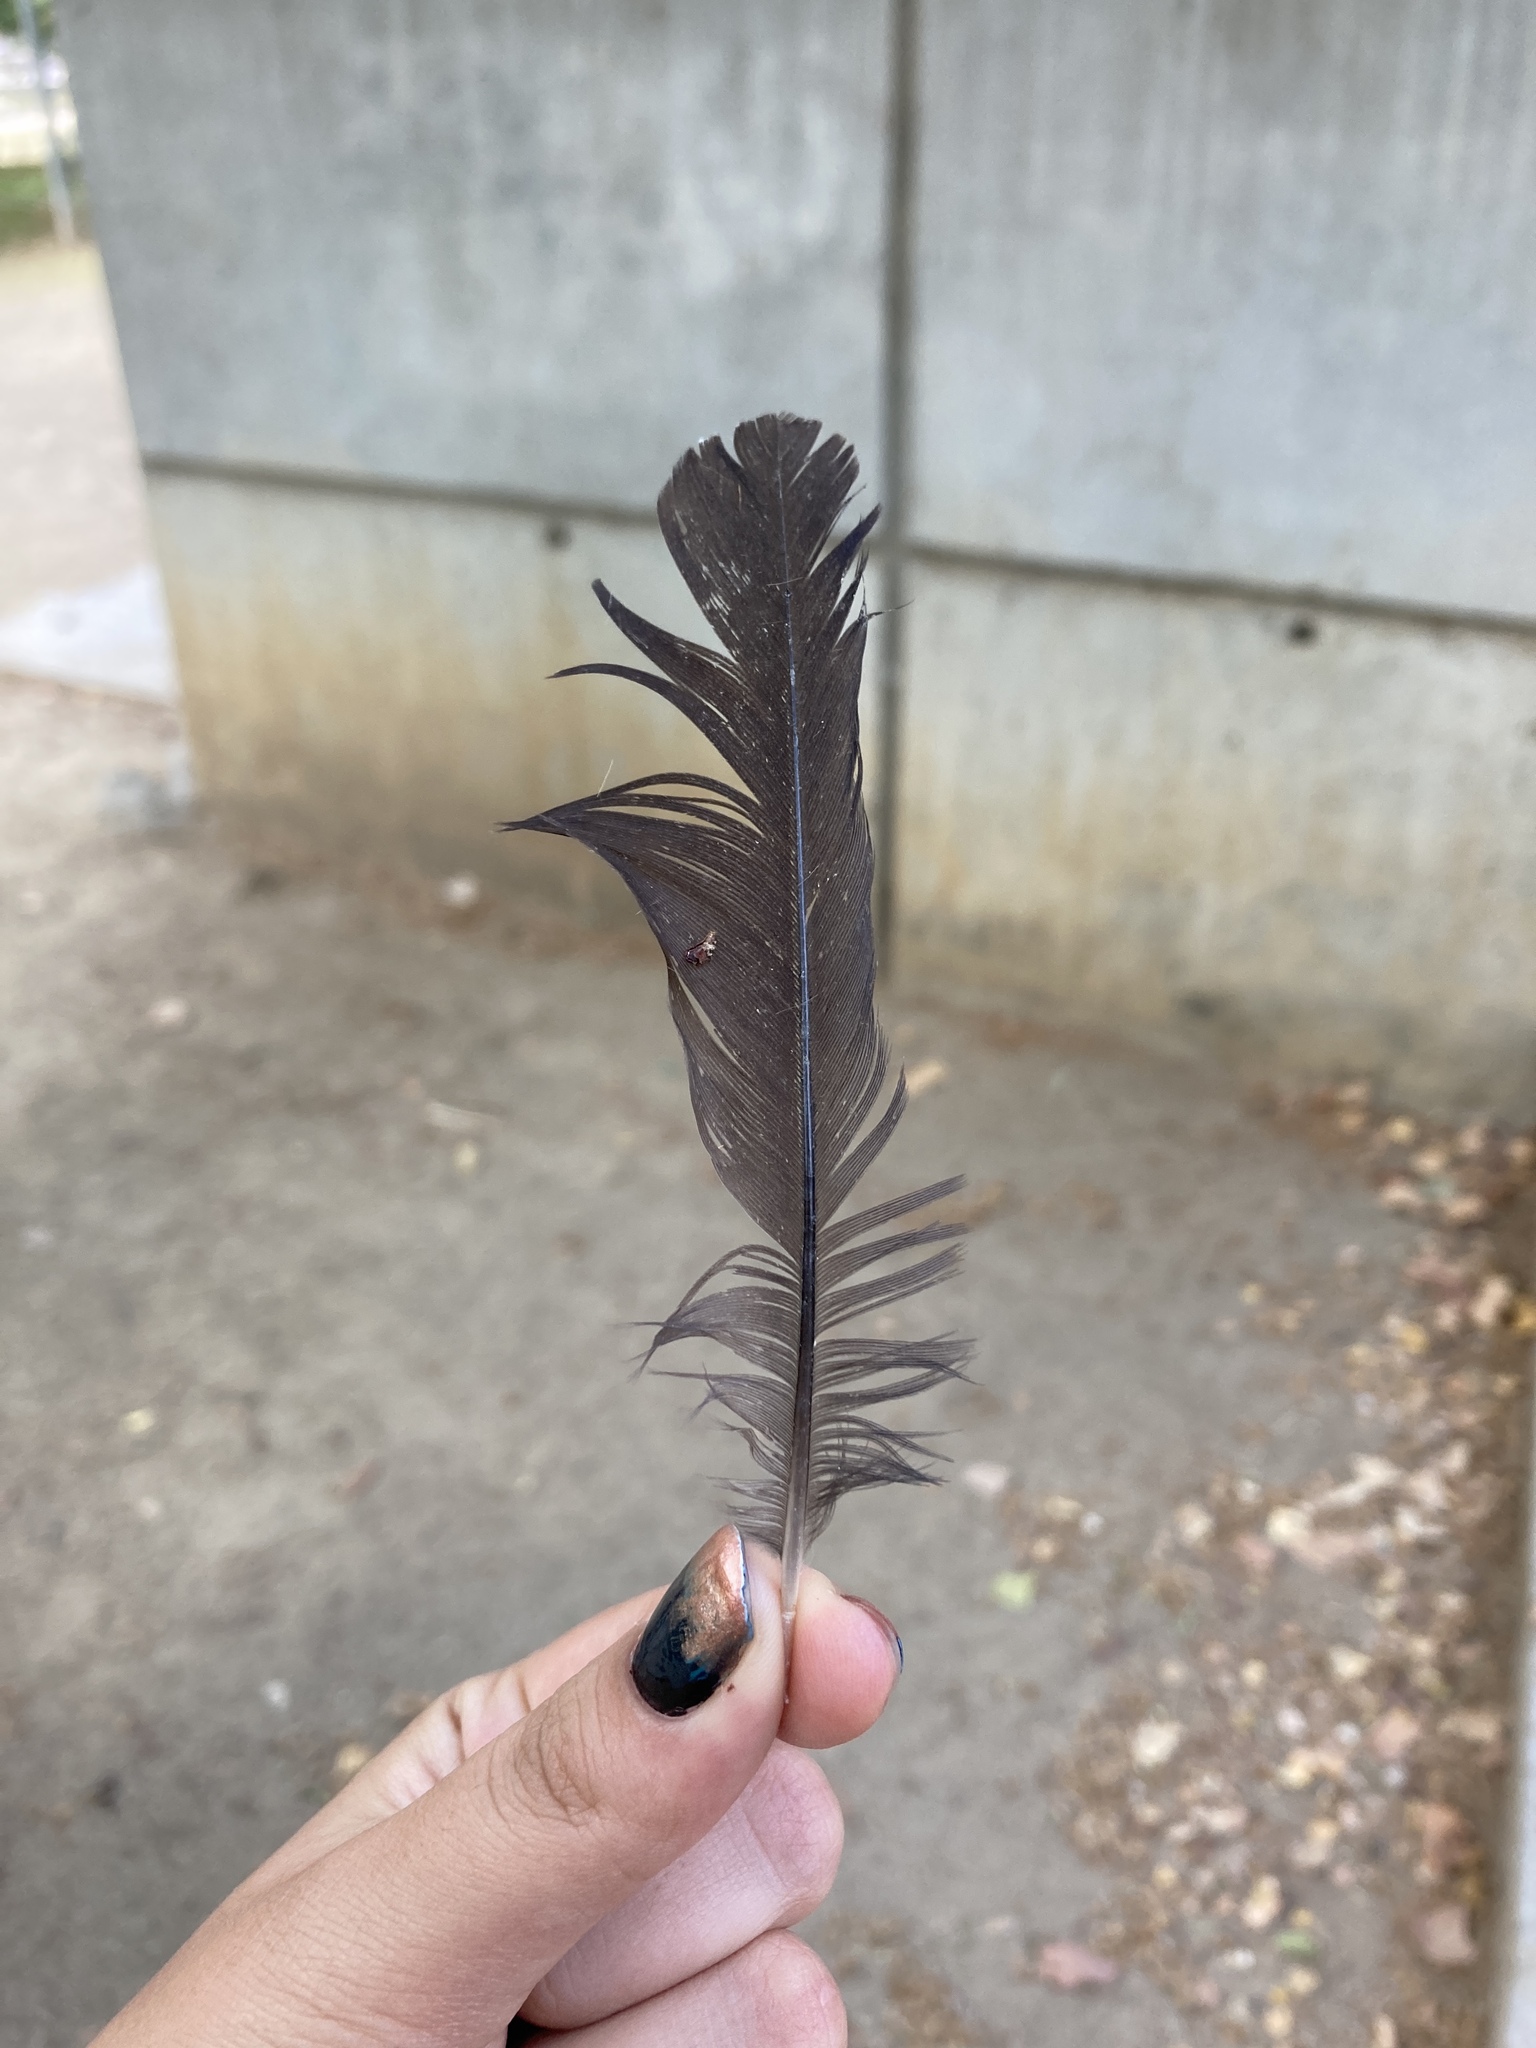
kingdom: Animalia
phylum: Chordata
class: Aves
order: Passeriformes
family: Turdidae
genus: Turdus
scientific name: Turdus merula
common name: Common blackbird
